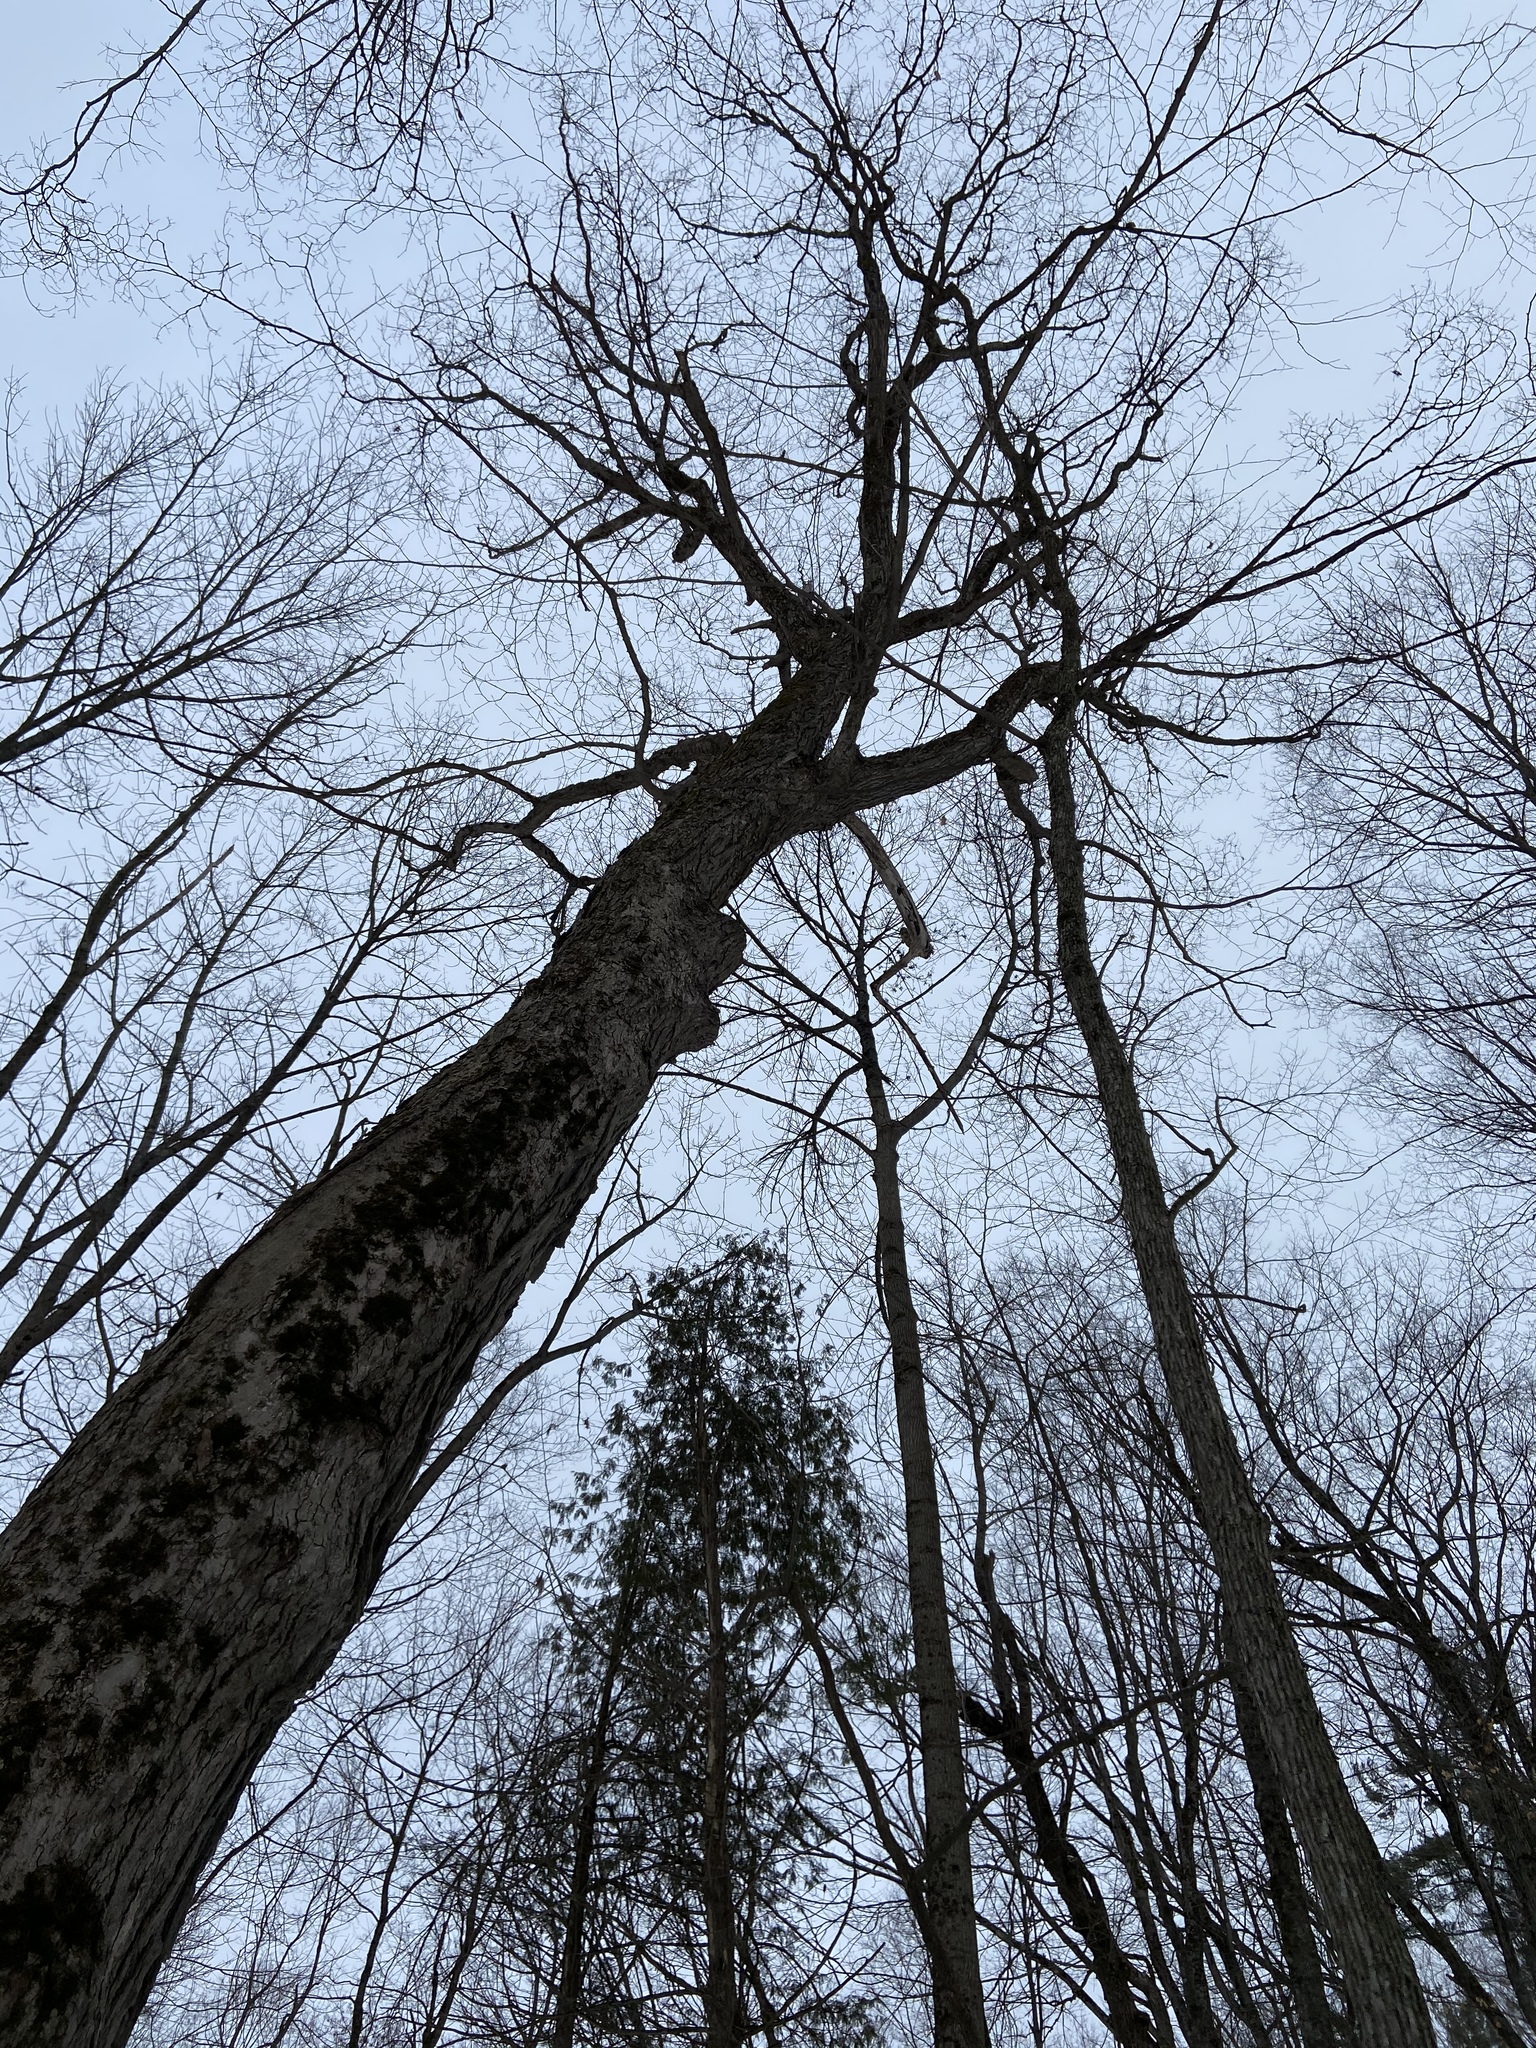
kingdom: Plantae
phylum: Tracheophyta
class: Magnoliopsida
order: Sapindales
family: Sapindaceae
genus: Acer
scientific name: Acer saccharum
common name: Sugar maple
